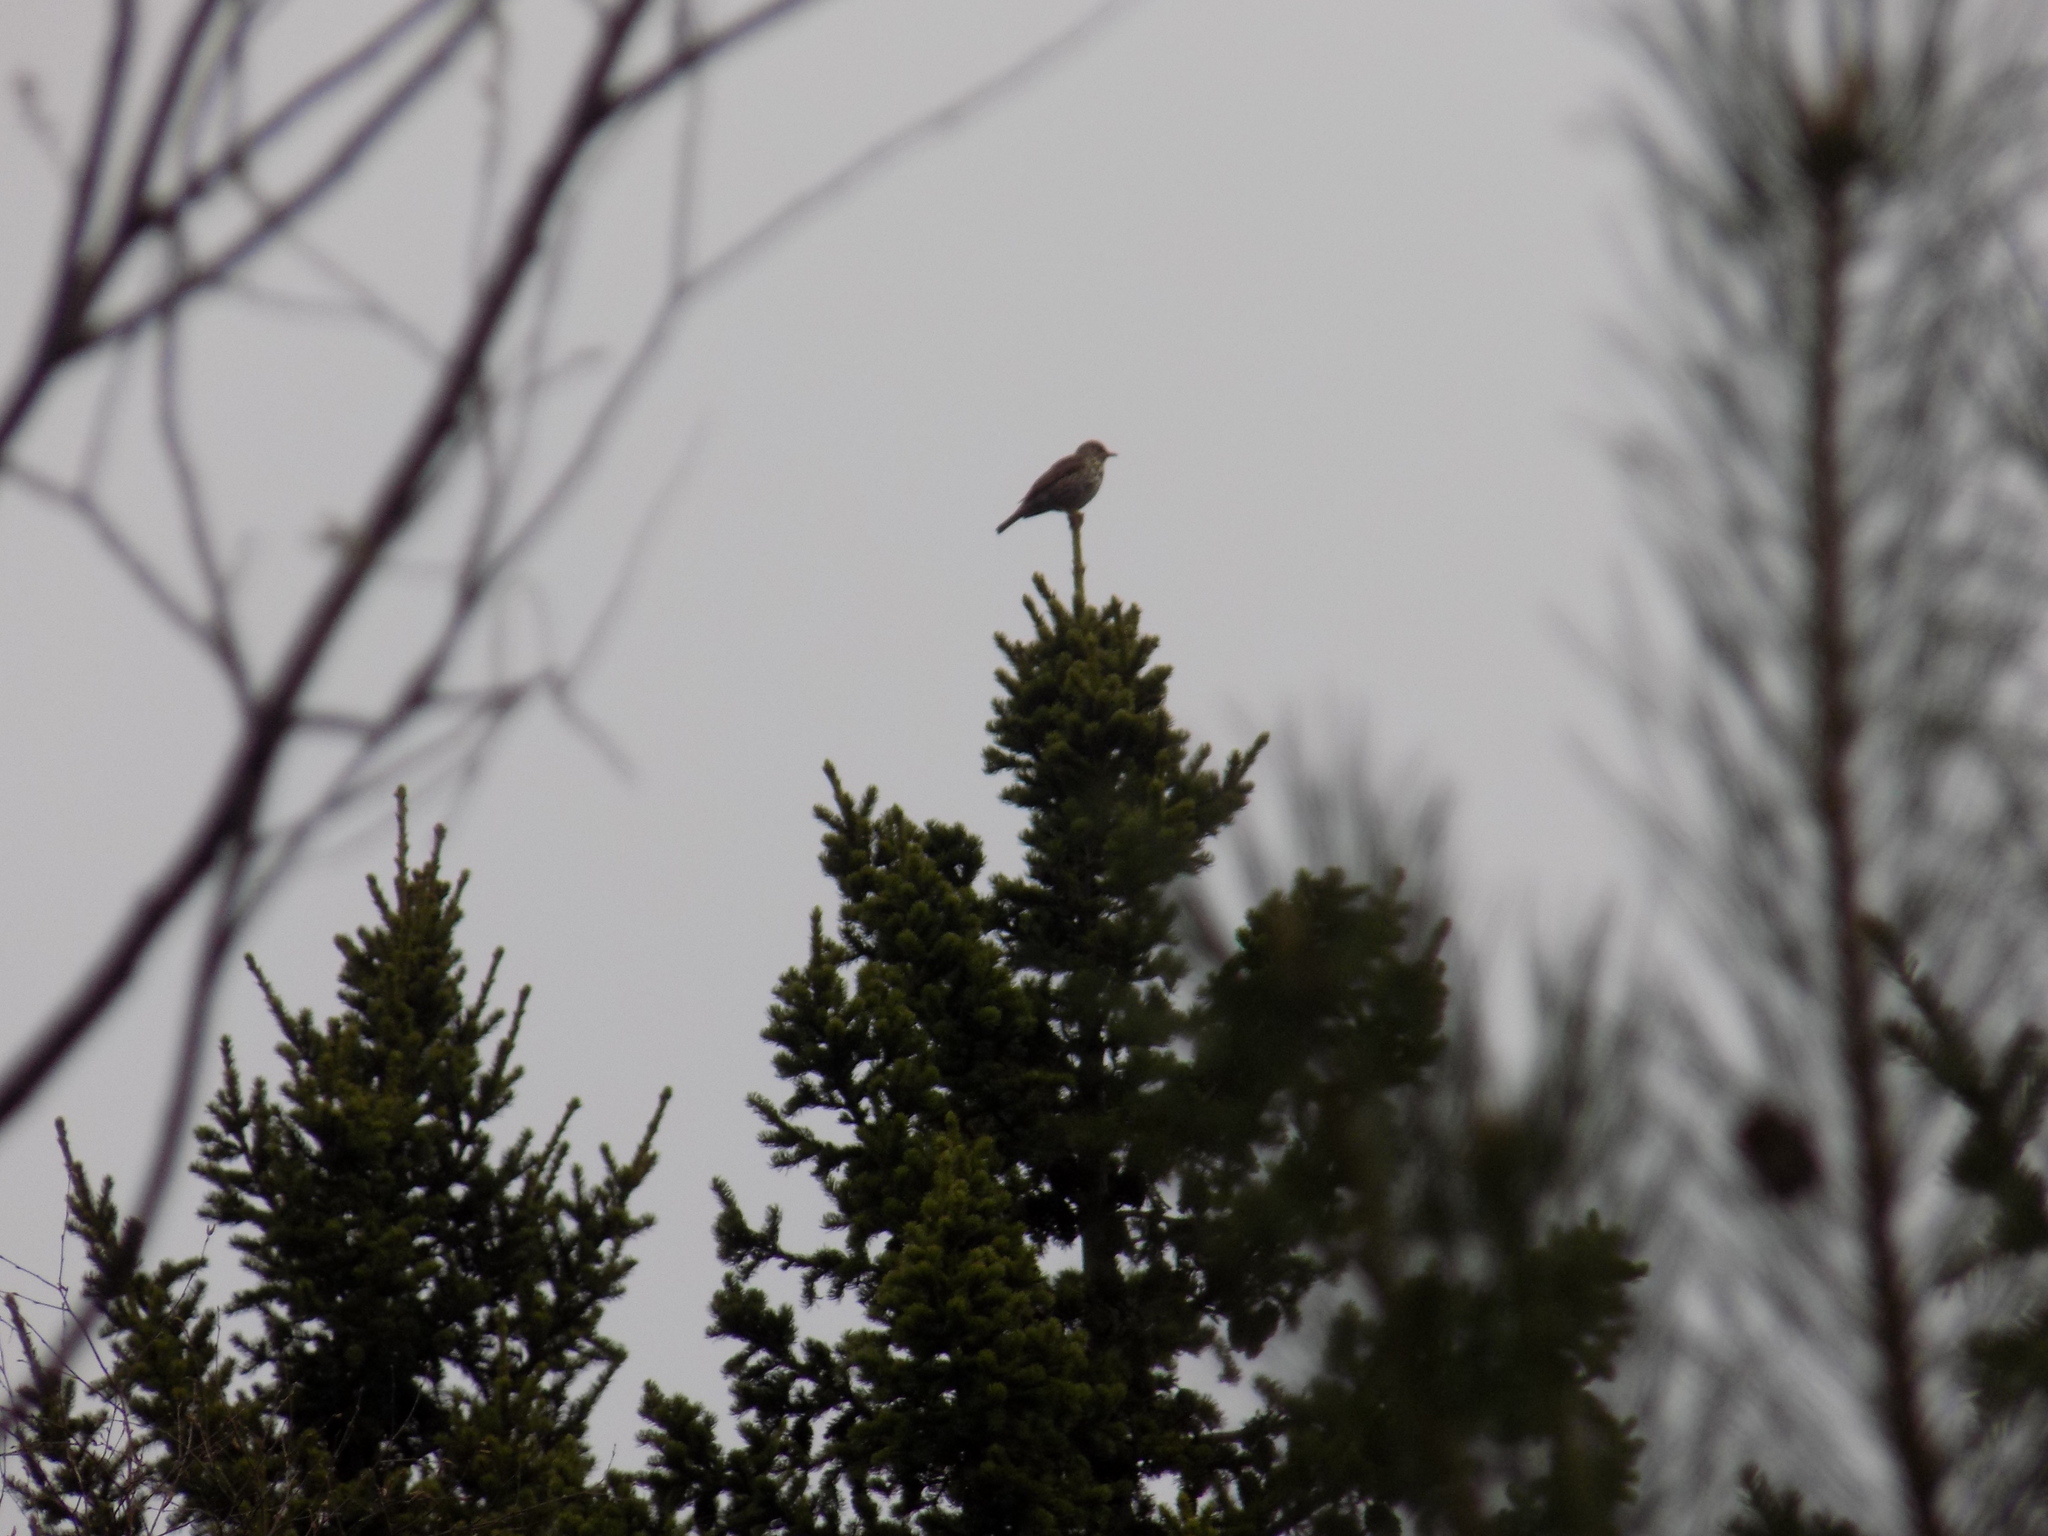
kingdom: Animalia
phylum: Chordata
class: Aves
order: Passeriformes
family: Turdidae
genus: Turdus
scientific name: Turdus philomelos
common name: Song thrush
